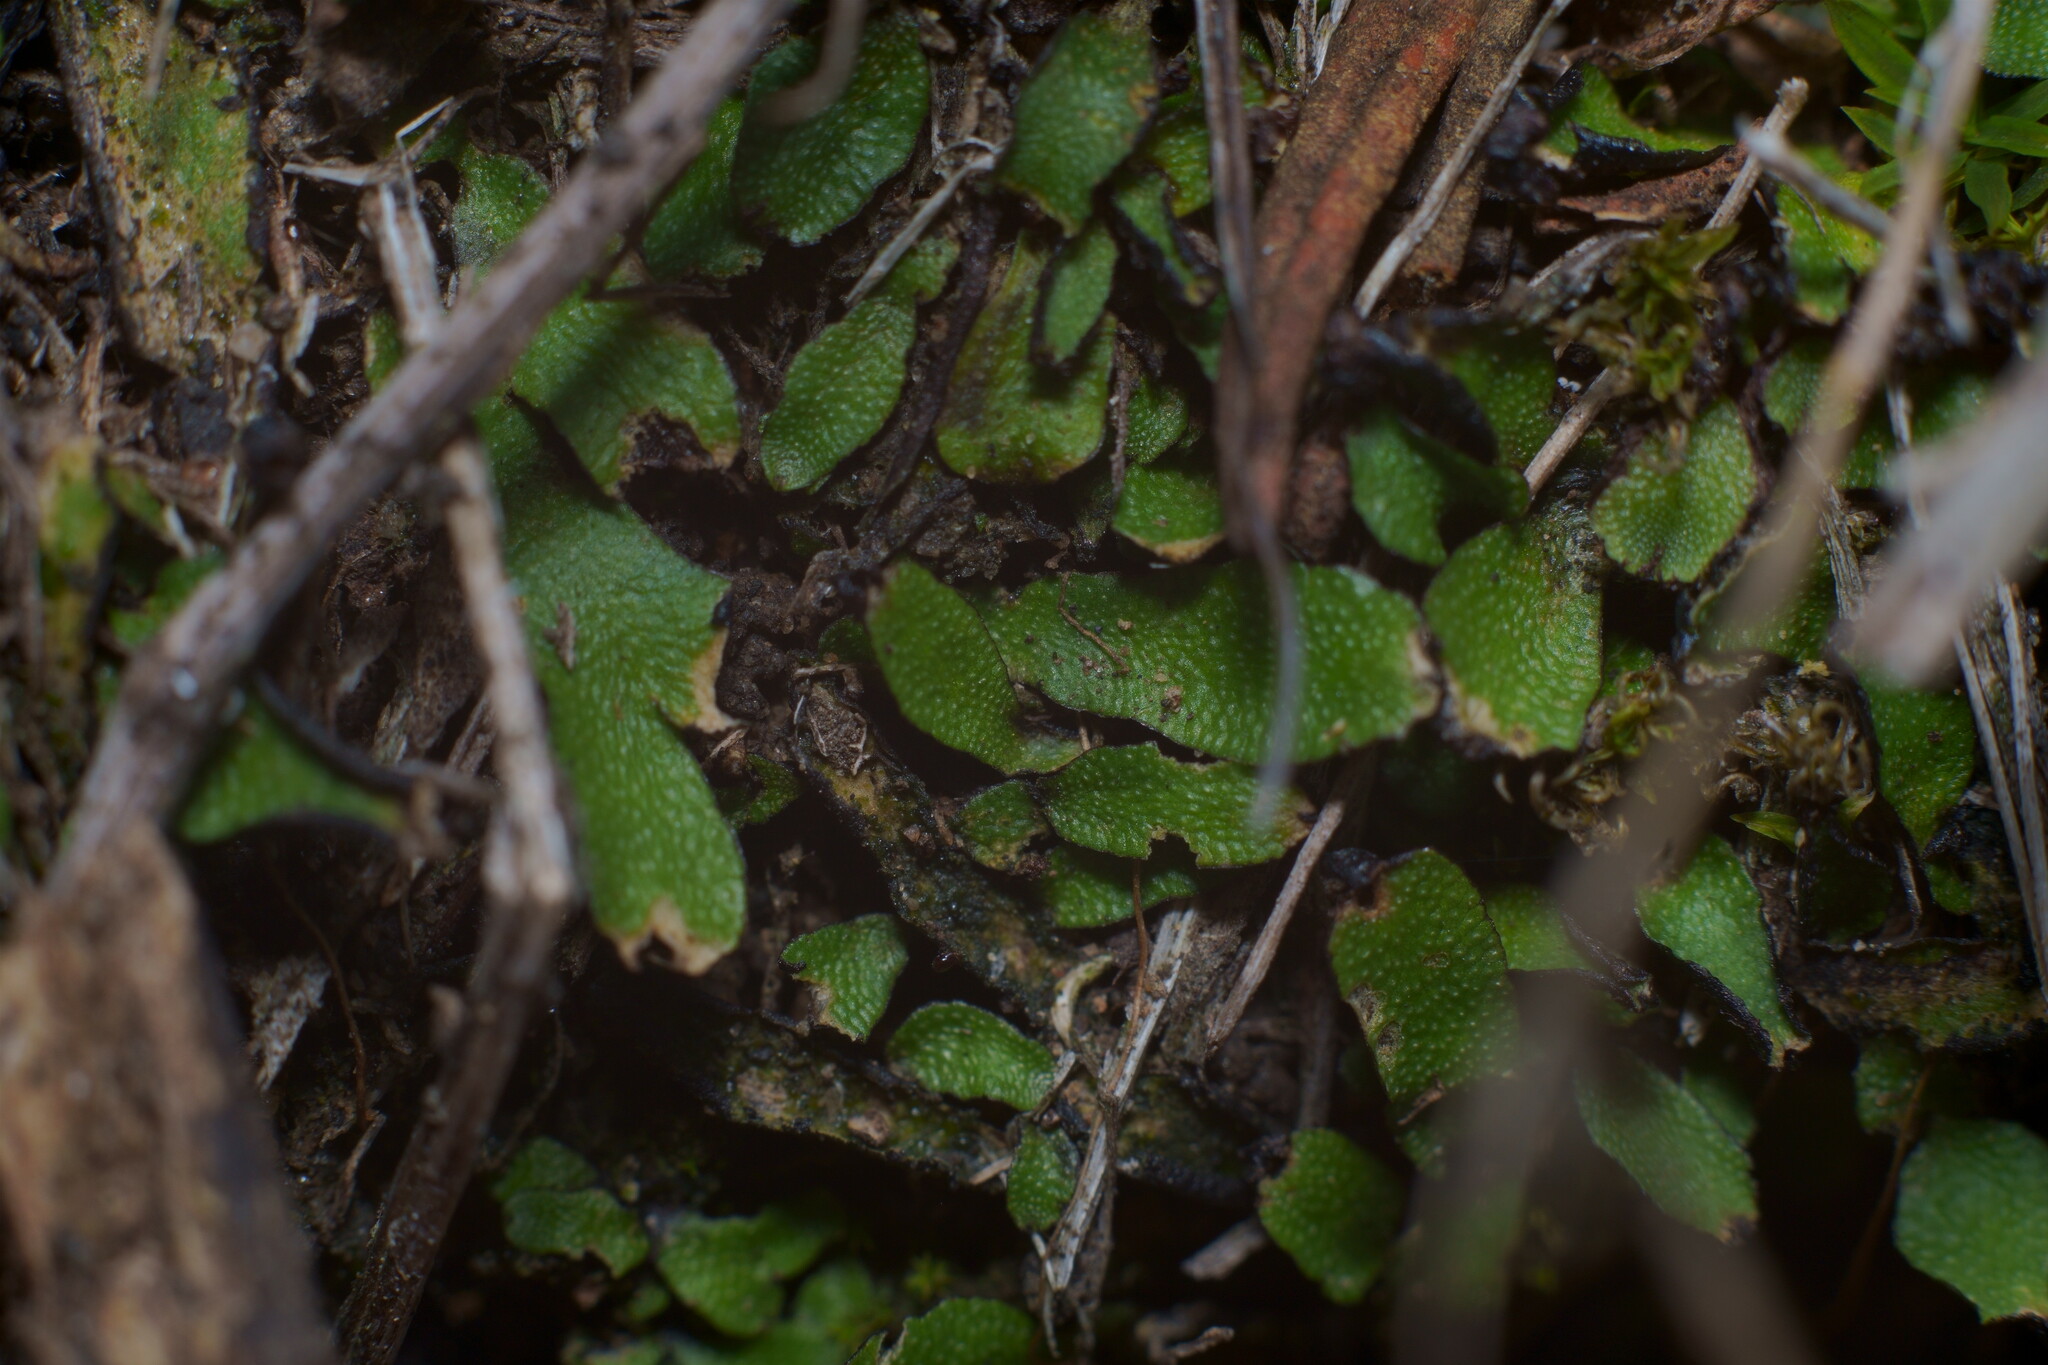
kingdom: Plantae
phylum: Marchantiophyta
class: Marchantiopsida
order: Marchantiales
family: Targioniaceae
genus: Targionia
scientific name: Targionia hypophylla
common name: Orobus-seed liverwort
